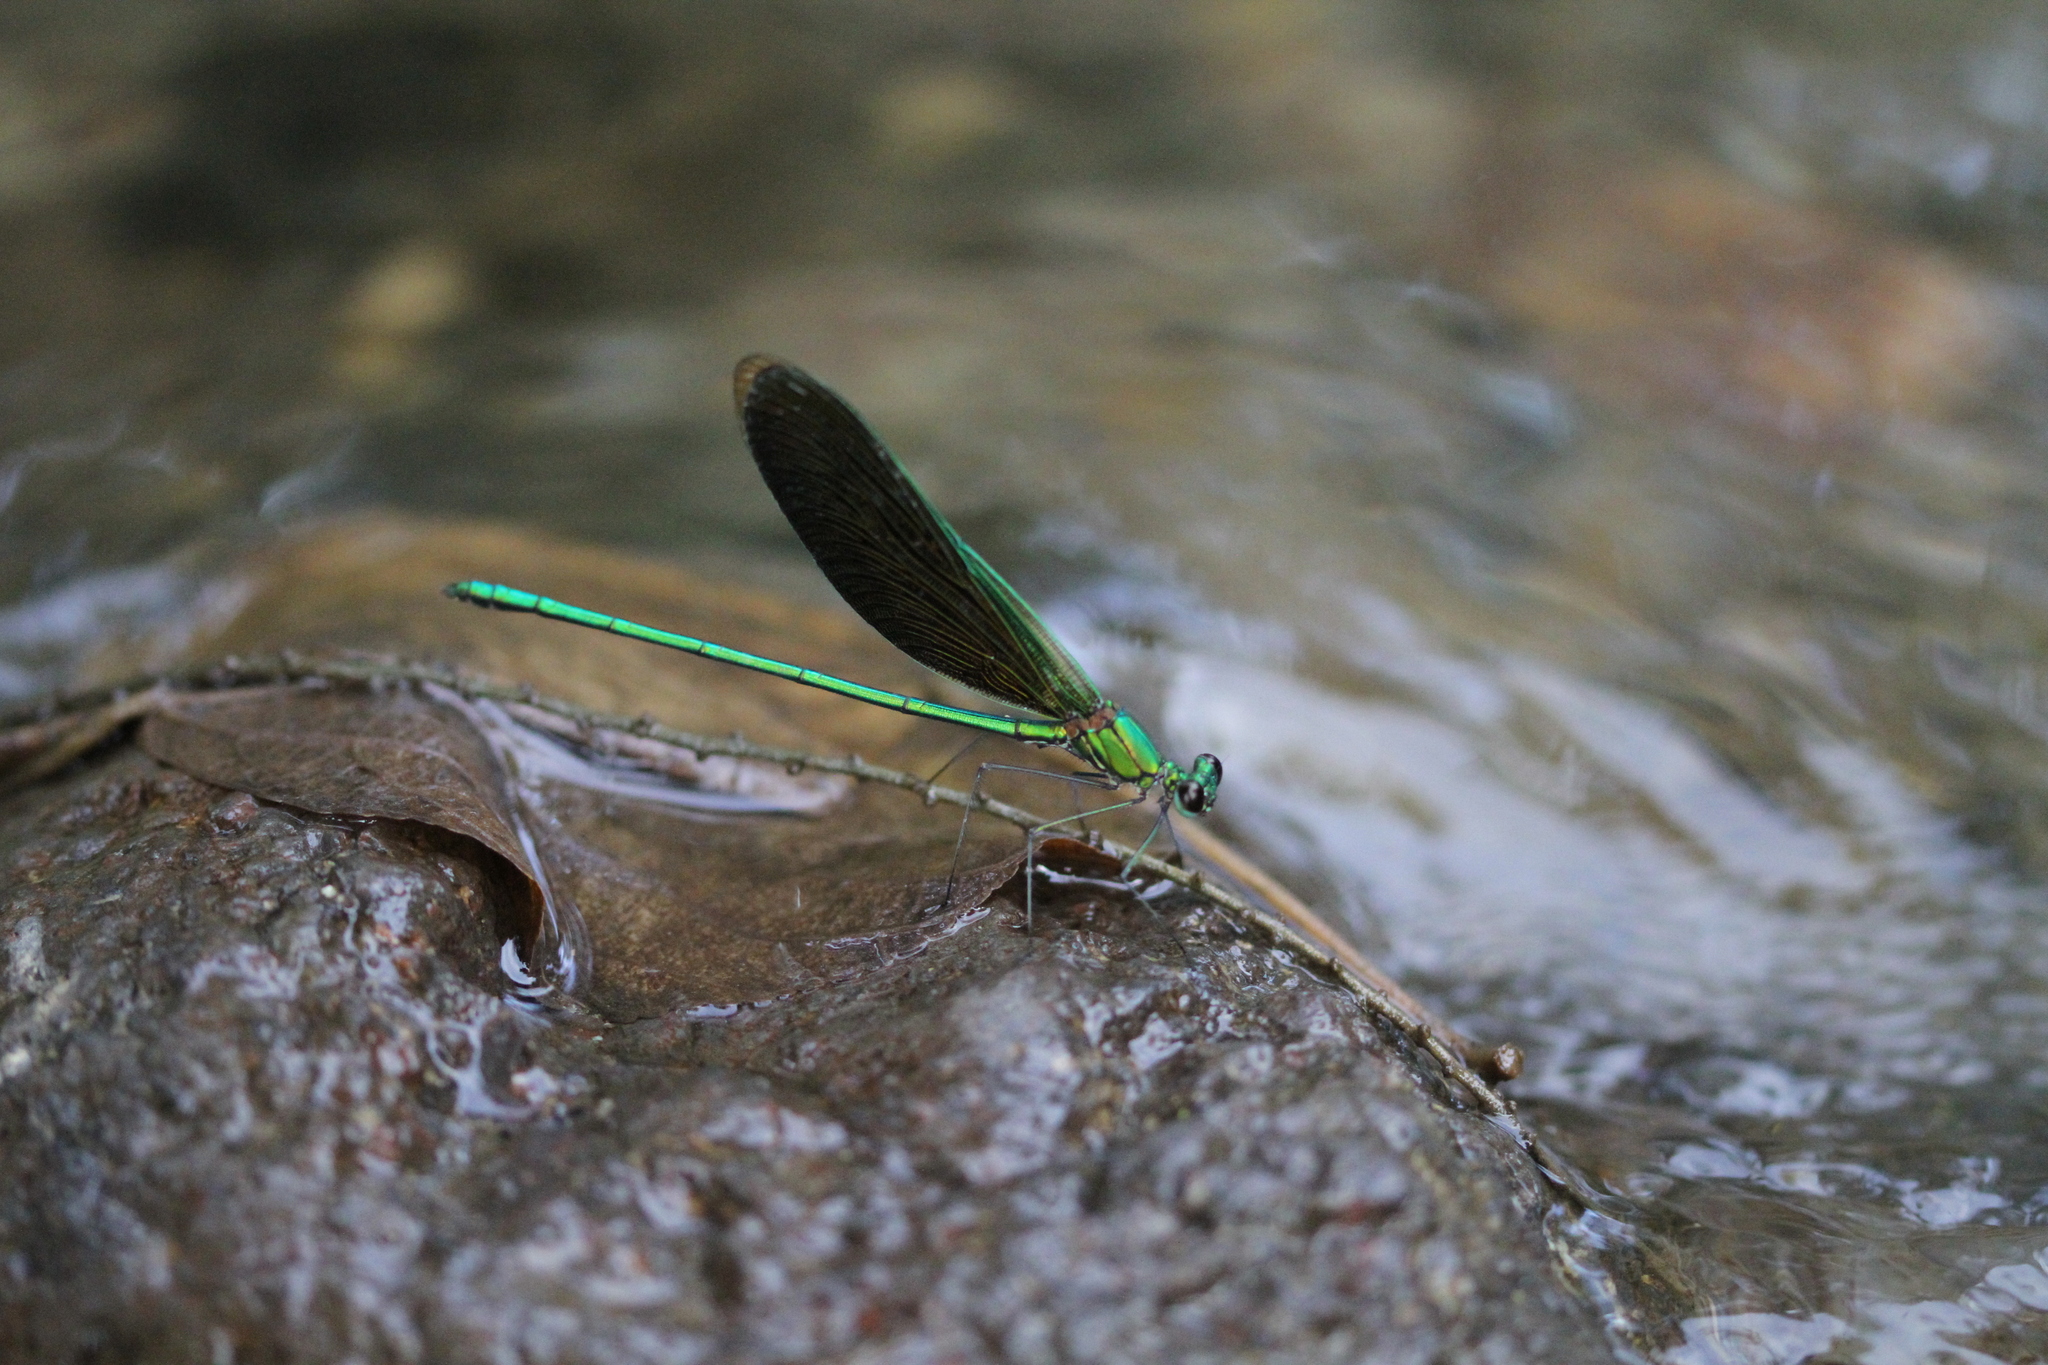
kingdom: Animalia
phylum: Arthropoda
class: Insecta
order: Odonata
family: Calopterygidae
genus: Neurobasis
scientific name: Neurobasis chinensis
